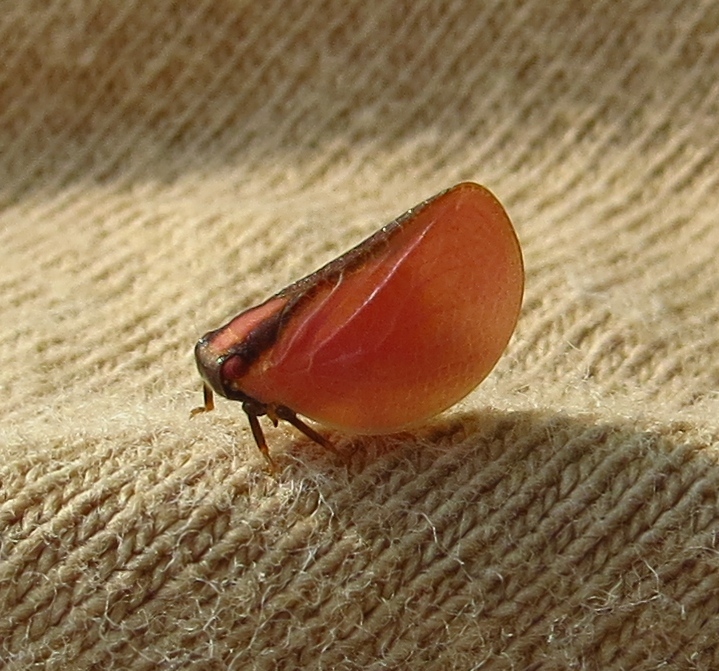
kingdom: Animalia
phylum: Arthropoda
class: Insecta
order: Hemiptera
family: Acanaloniidae
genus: Acanalonia
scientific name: Acanalonia bivittata
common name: Two-striped planthopper
